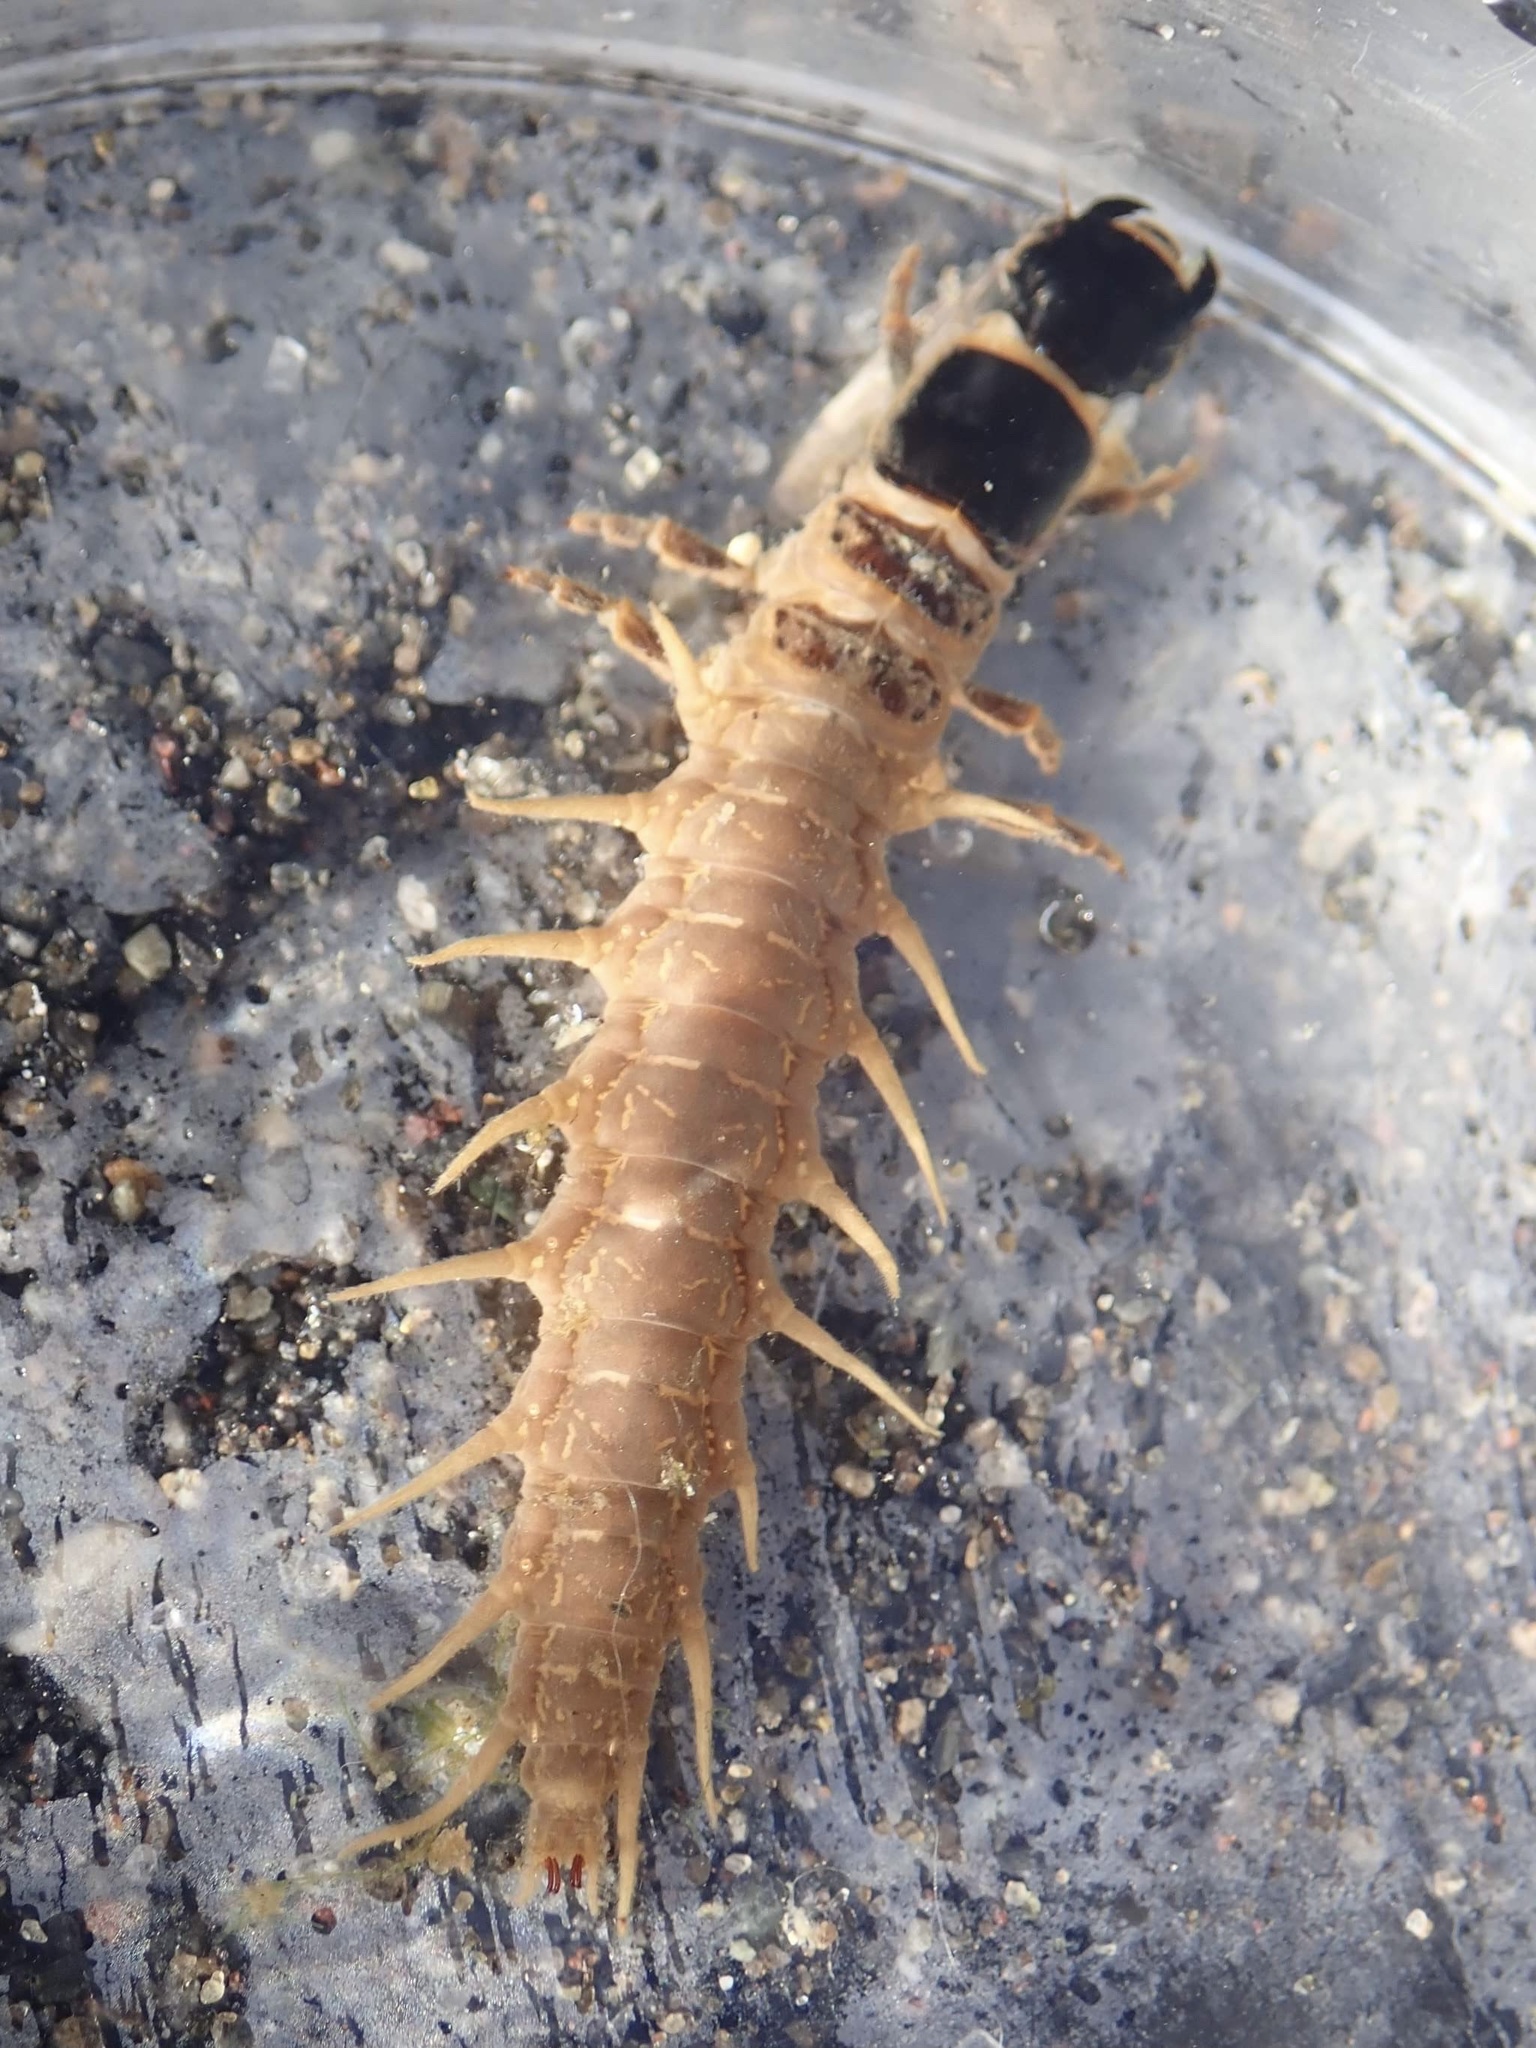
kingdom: Animalia
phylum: Arthropoda
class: Insecta
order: Megaloptera
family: Corydalidae
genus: Archichauliodes
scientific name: Archichauliodes diversus
